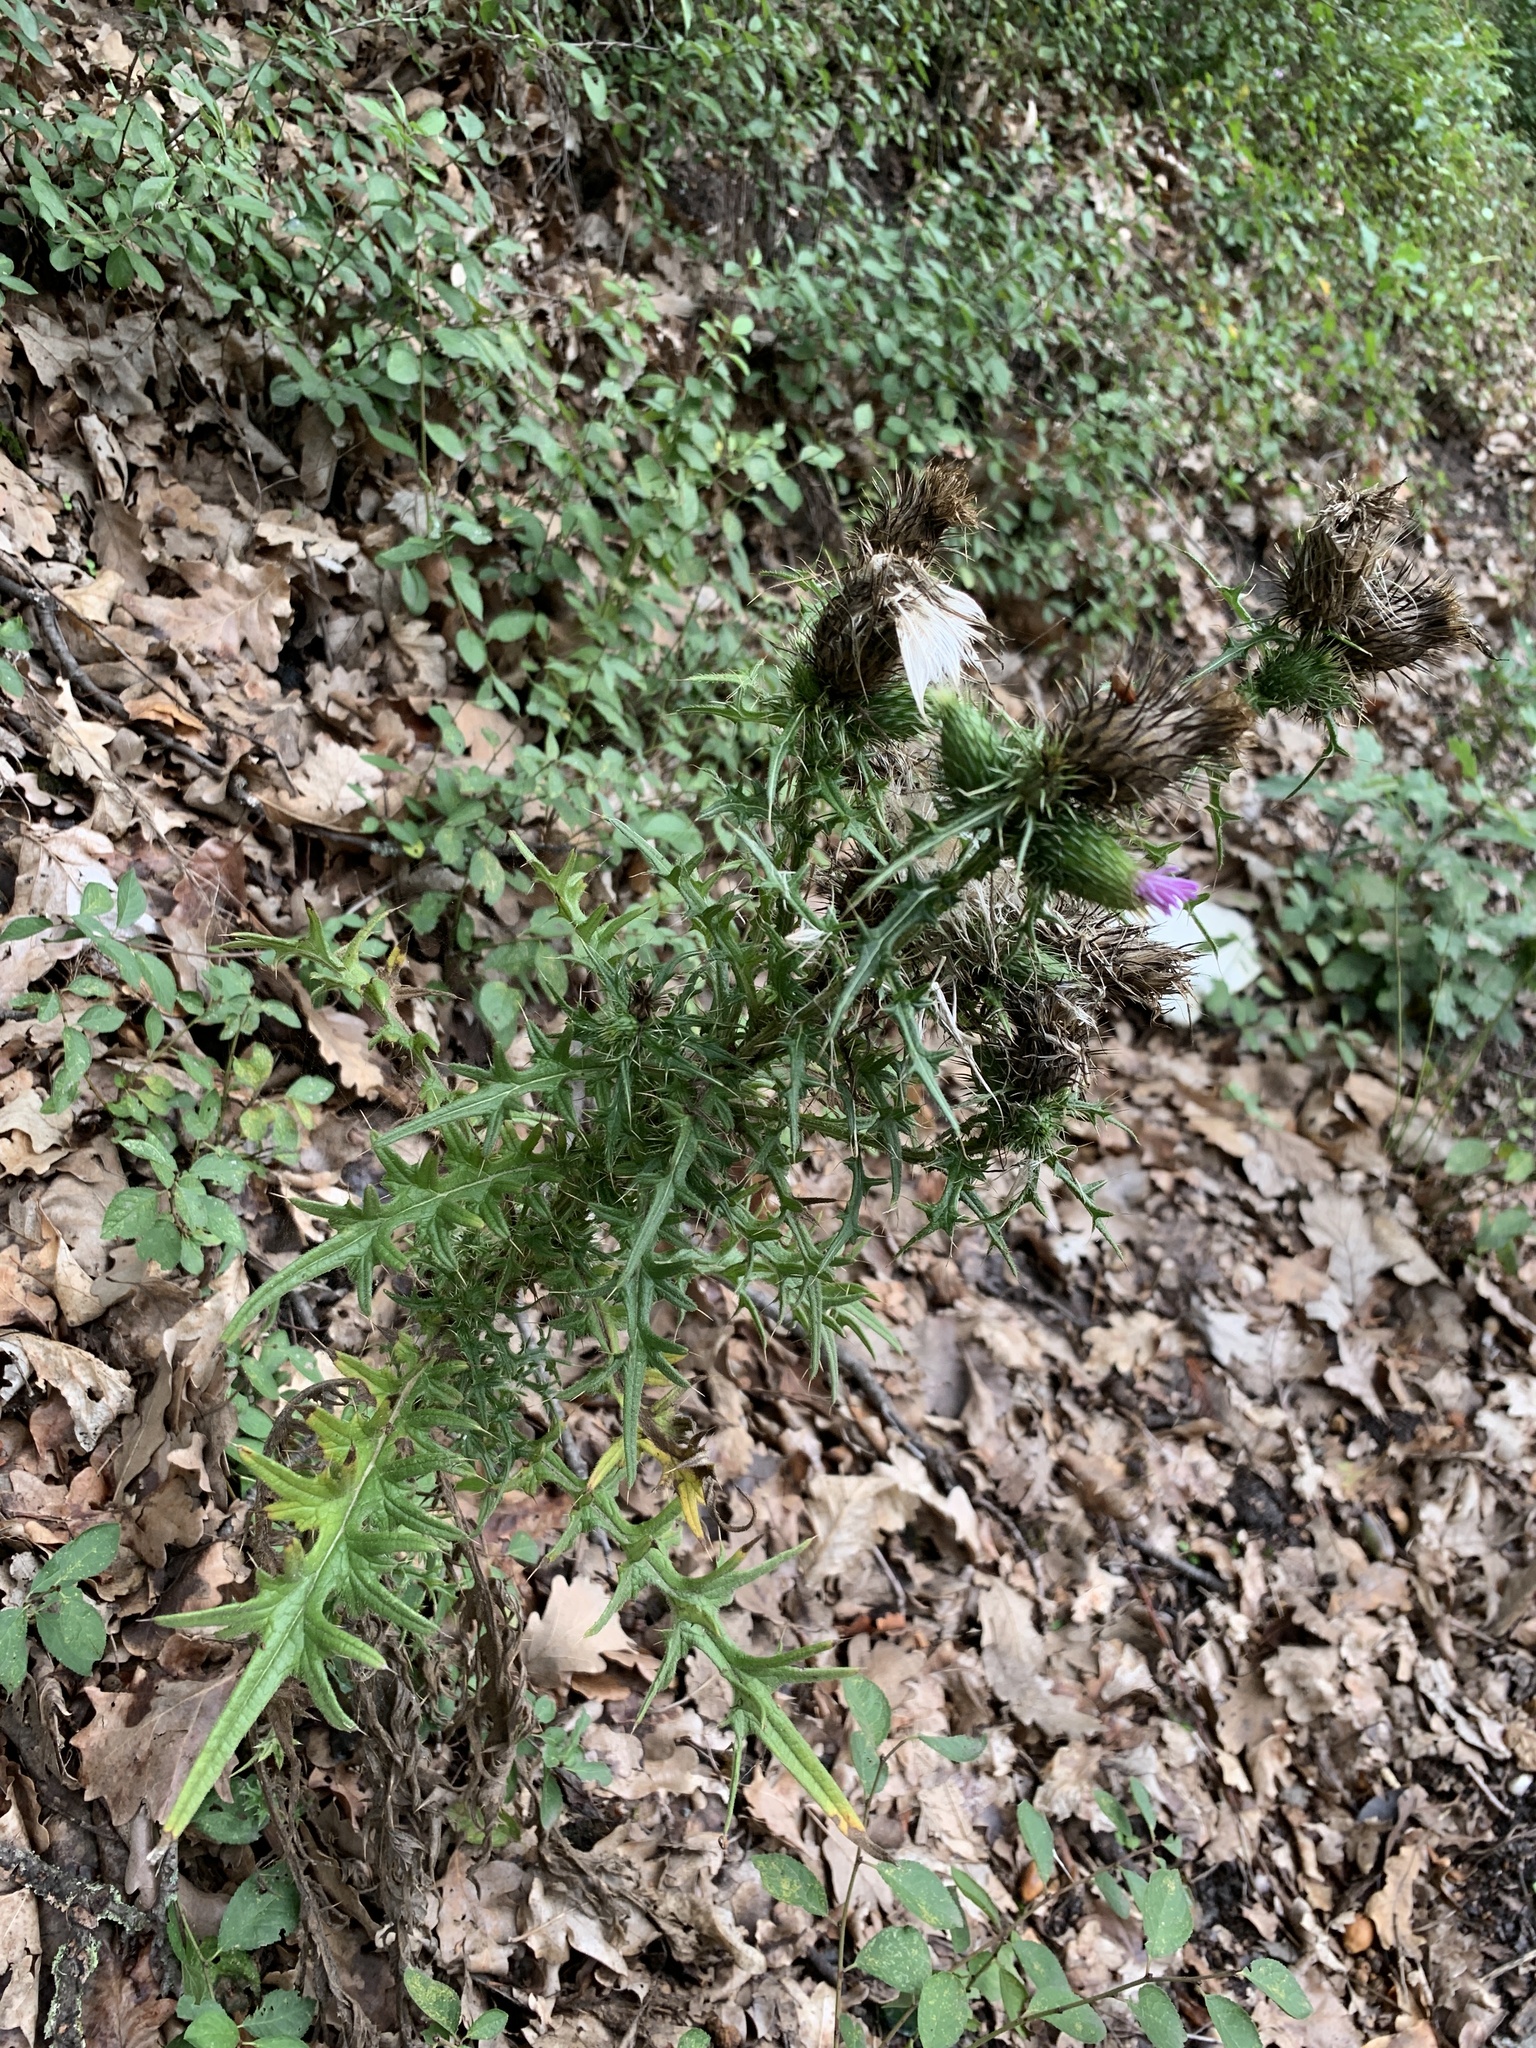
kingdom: Plantae
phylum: Tracheophyta
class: Magnoliopsida
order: Asterales
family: Asteraceae
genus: Cirsium
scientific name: Cirsium vulgare
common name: Bull thistle
